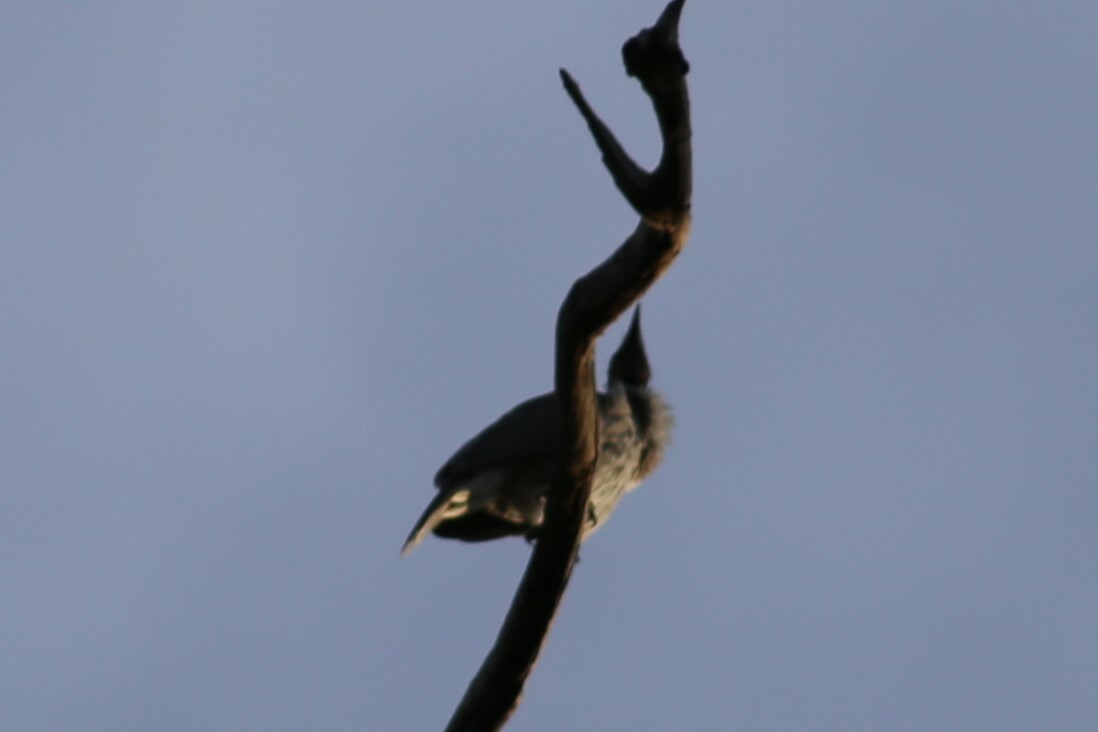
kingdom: Animalia
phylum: Chordata
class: Aves
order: Passeriformes
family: Meliphagidae
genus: Philemon
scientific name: Philemon corniculatus
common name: Noisy friarbird
